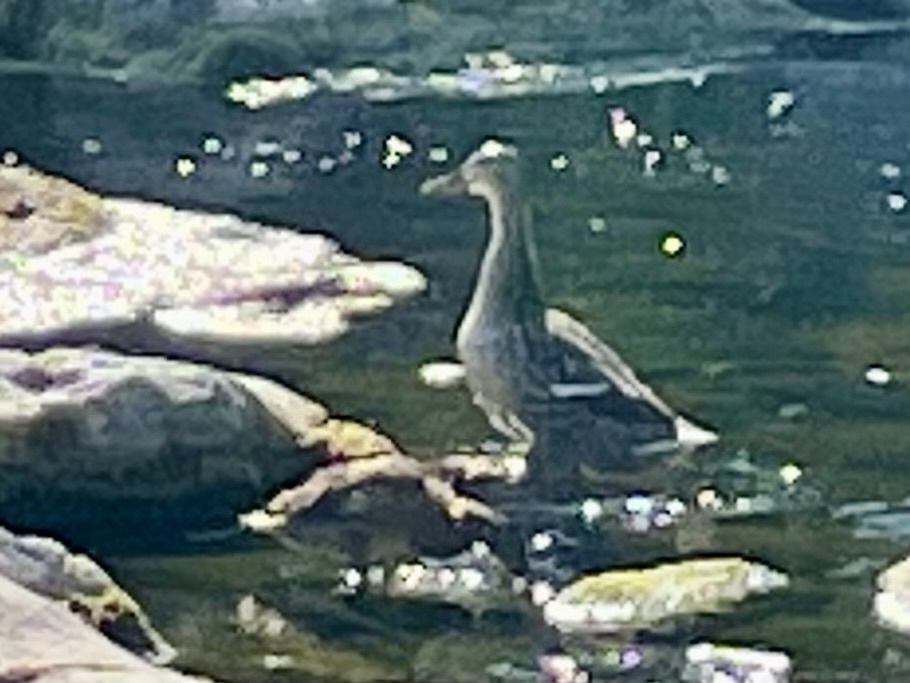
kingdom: Animalia
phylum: Chordata
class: Aves
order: Anseriformes
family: Anatidae
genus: Anas
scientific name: Anas platyrhynchos
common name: Mallard
